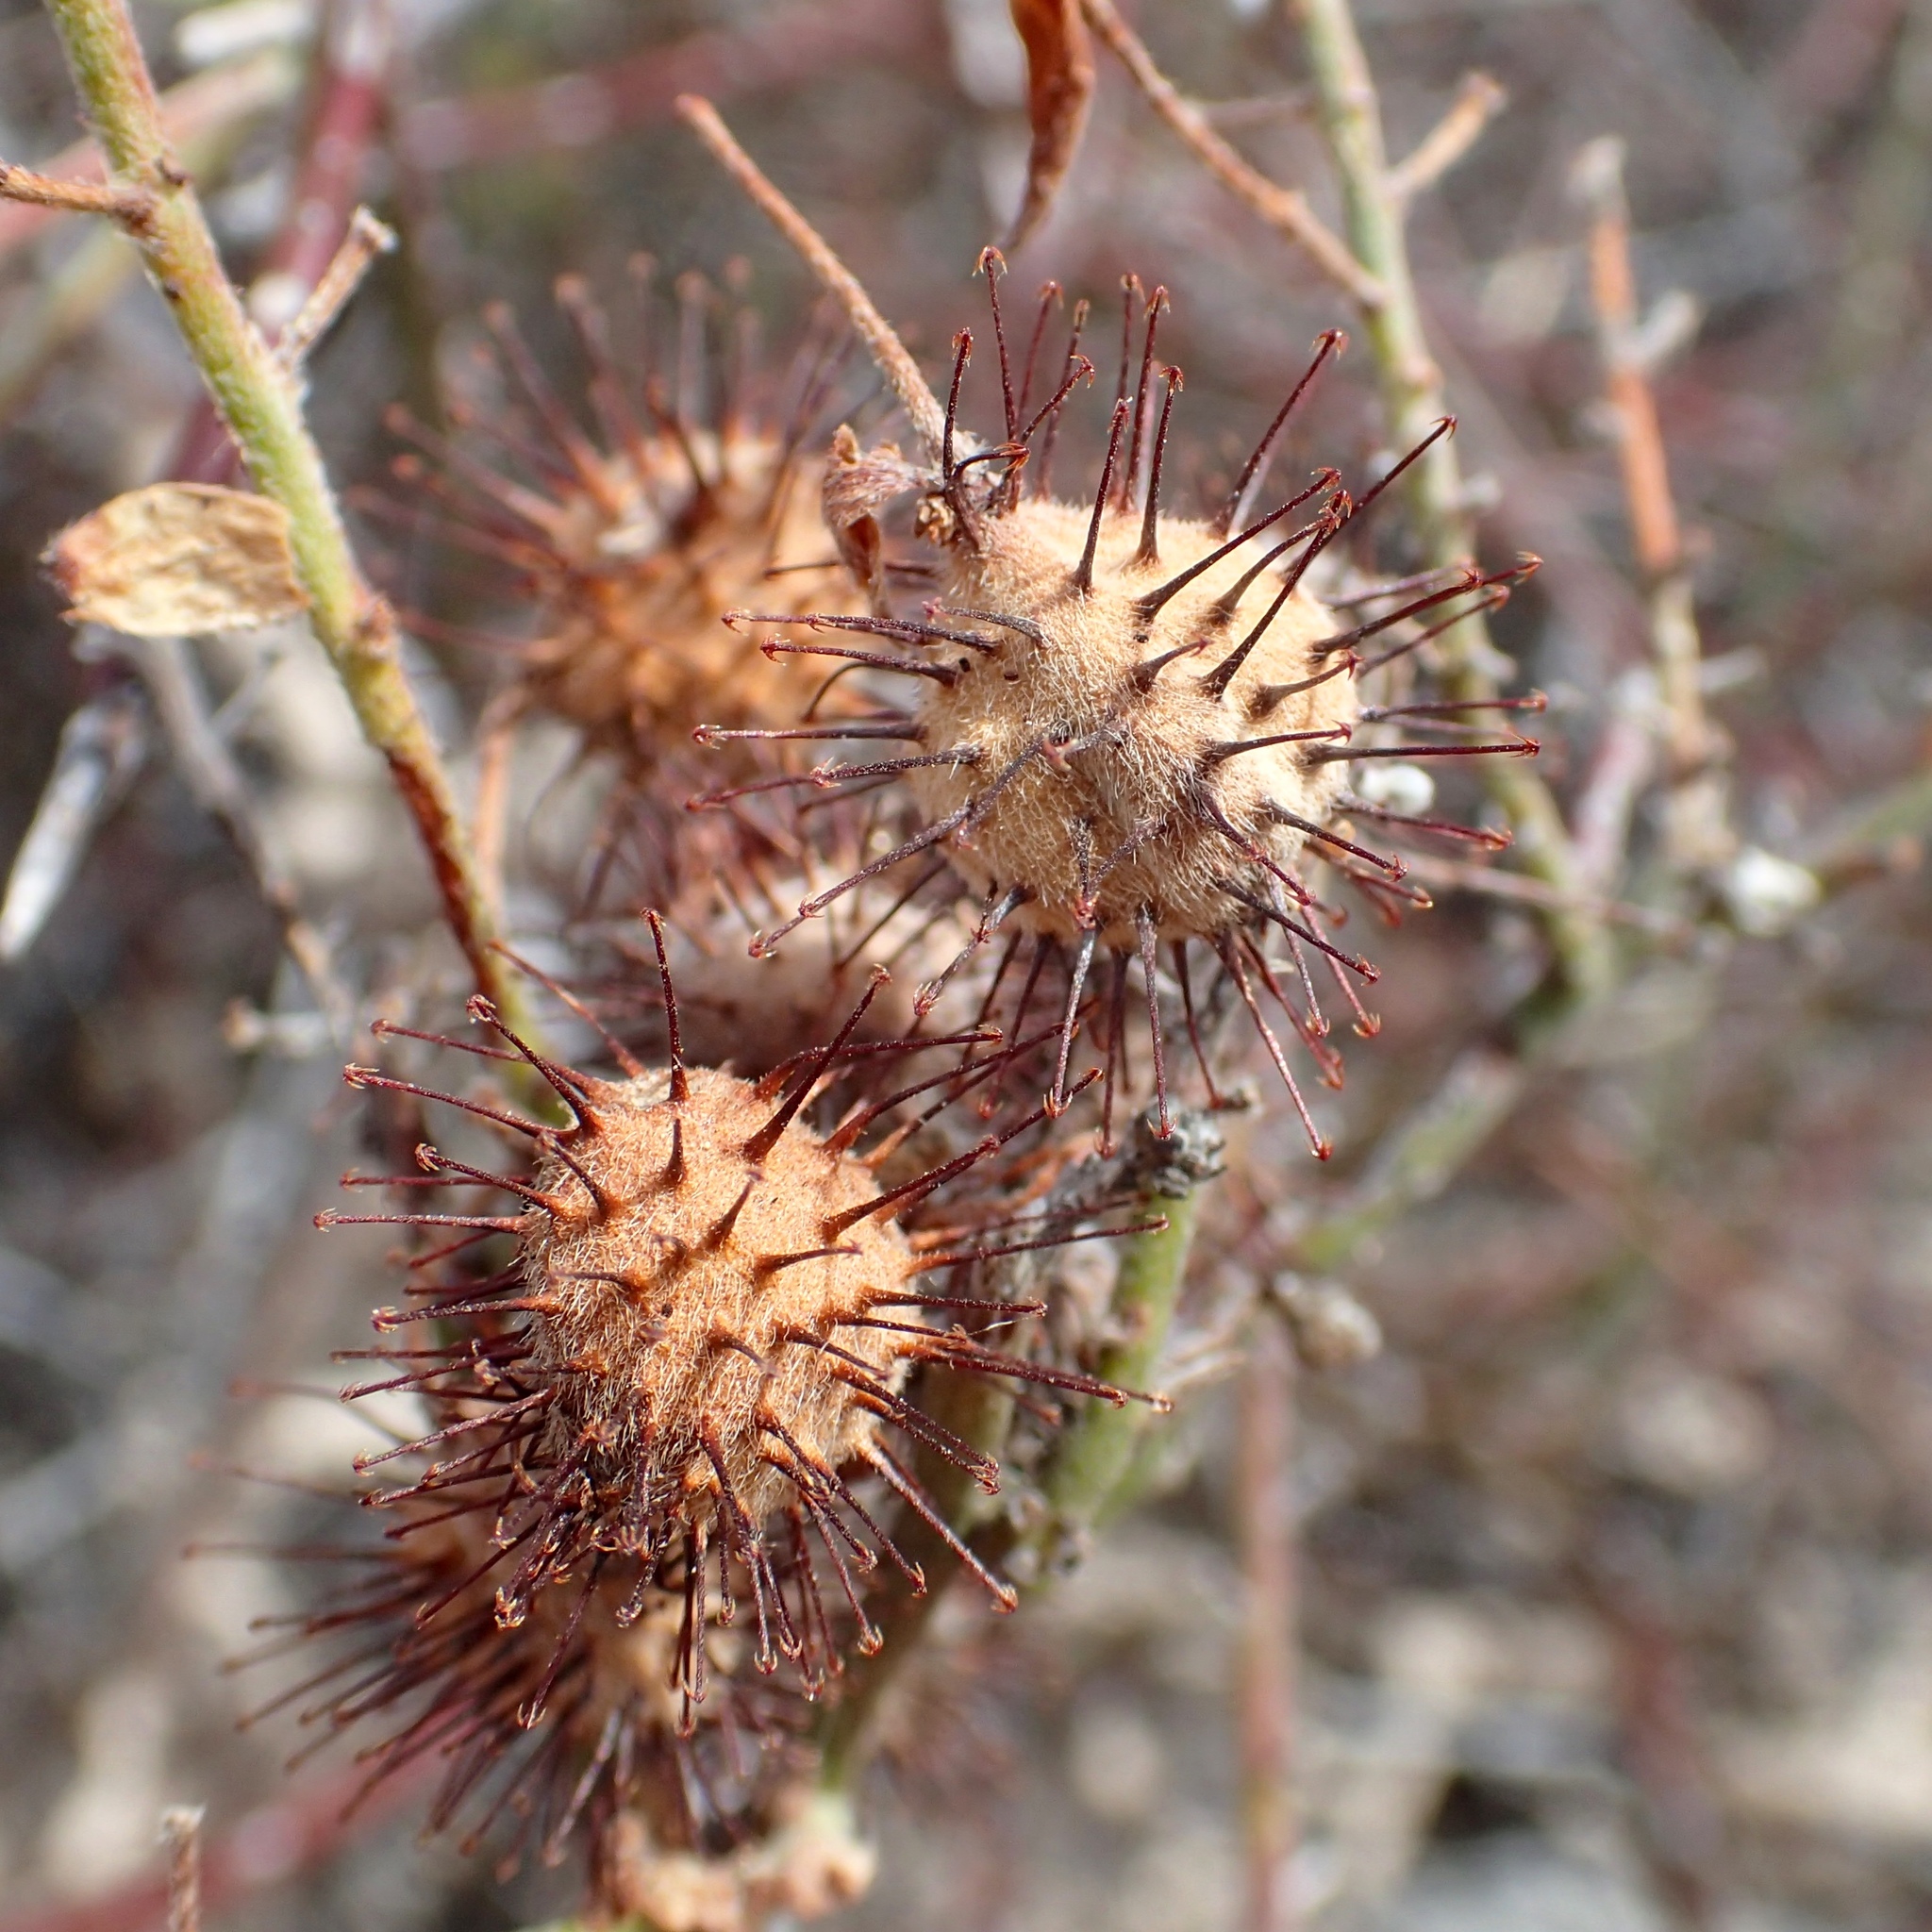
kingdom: Plantae
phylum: Tracheophyta
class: Magnoliopsida
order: Zygophyllales
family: Krameriaceae
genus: Krameria
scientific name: Krameria bicolor
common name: White ratany
